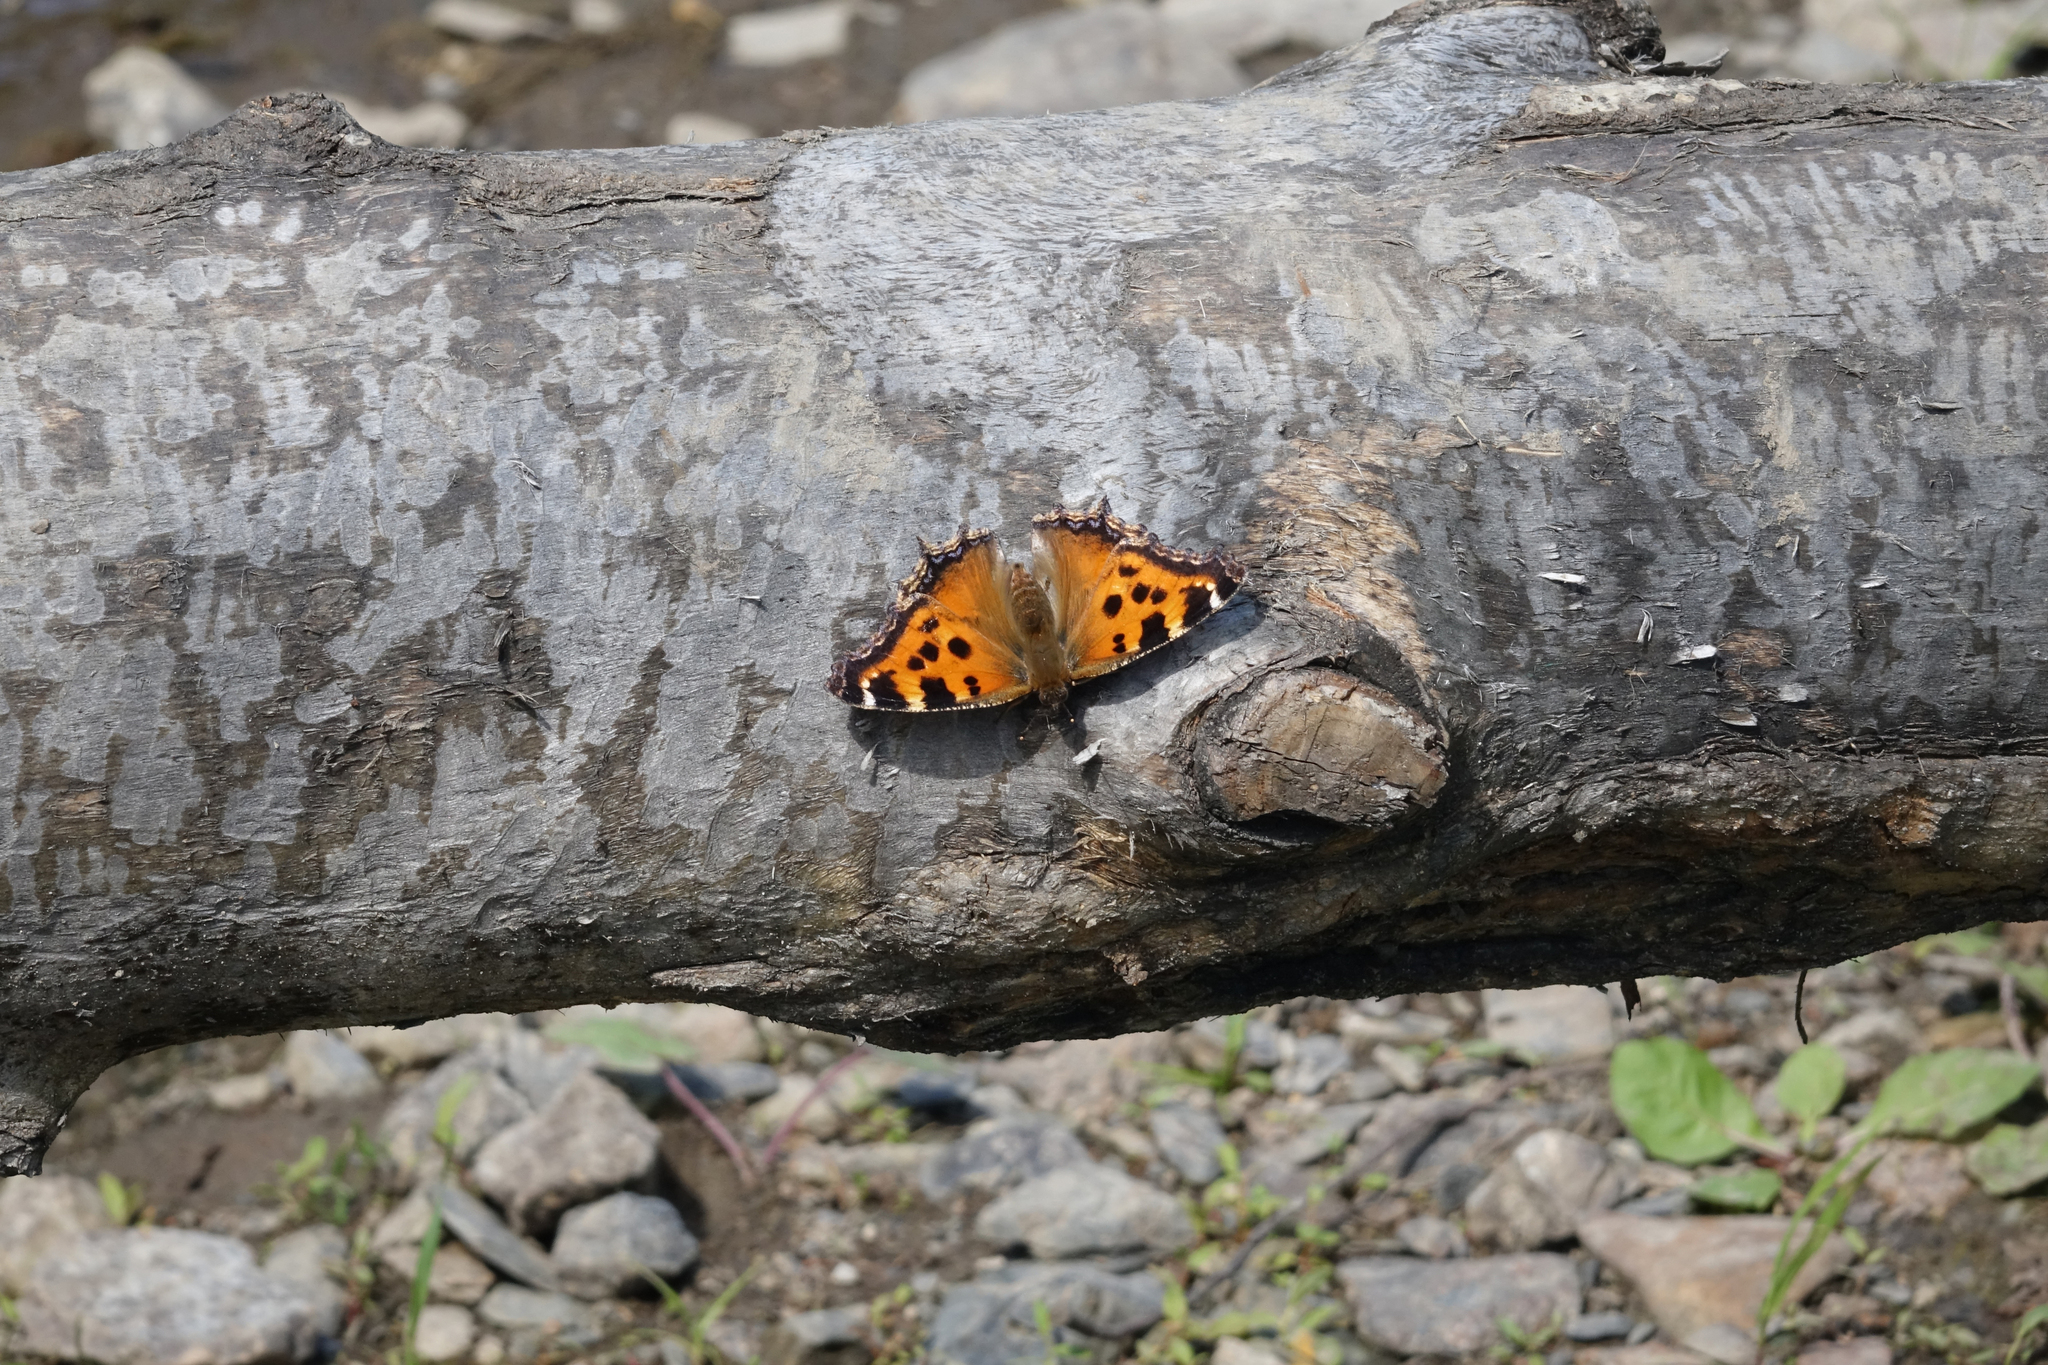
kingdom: Animalia
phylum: Arthropoda
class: Insecta
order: Lepidoptera
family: Nymphalidae
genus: Nymphalis
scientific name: Nymphalis xanthomelas
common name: Scarce tortoiseshell
